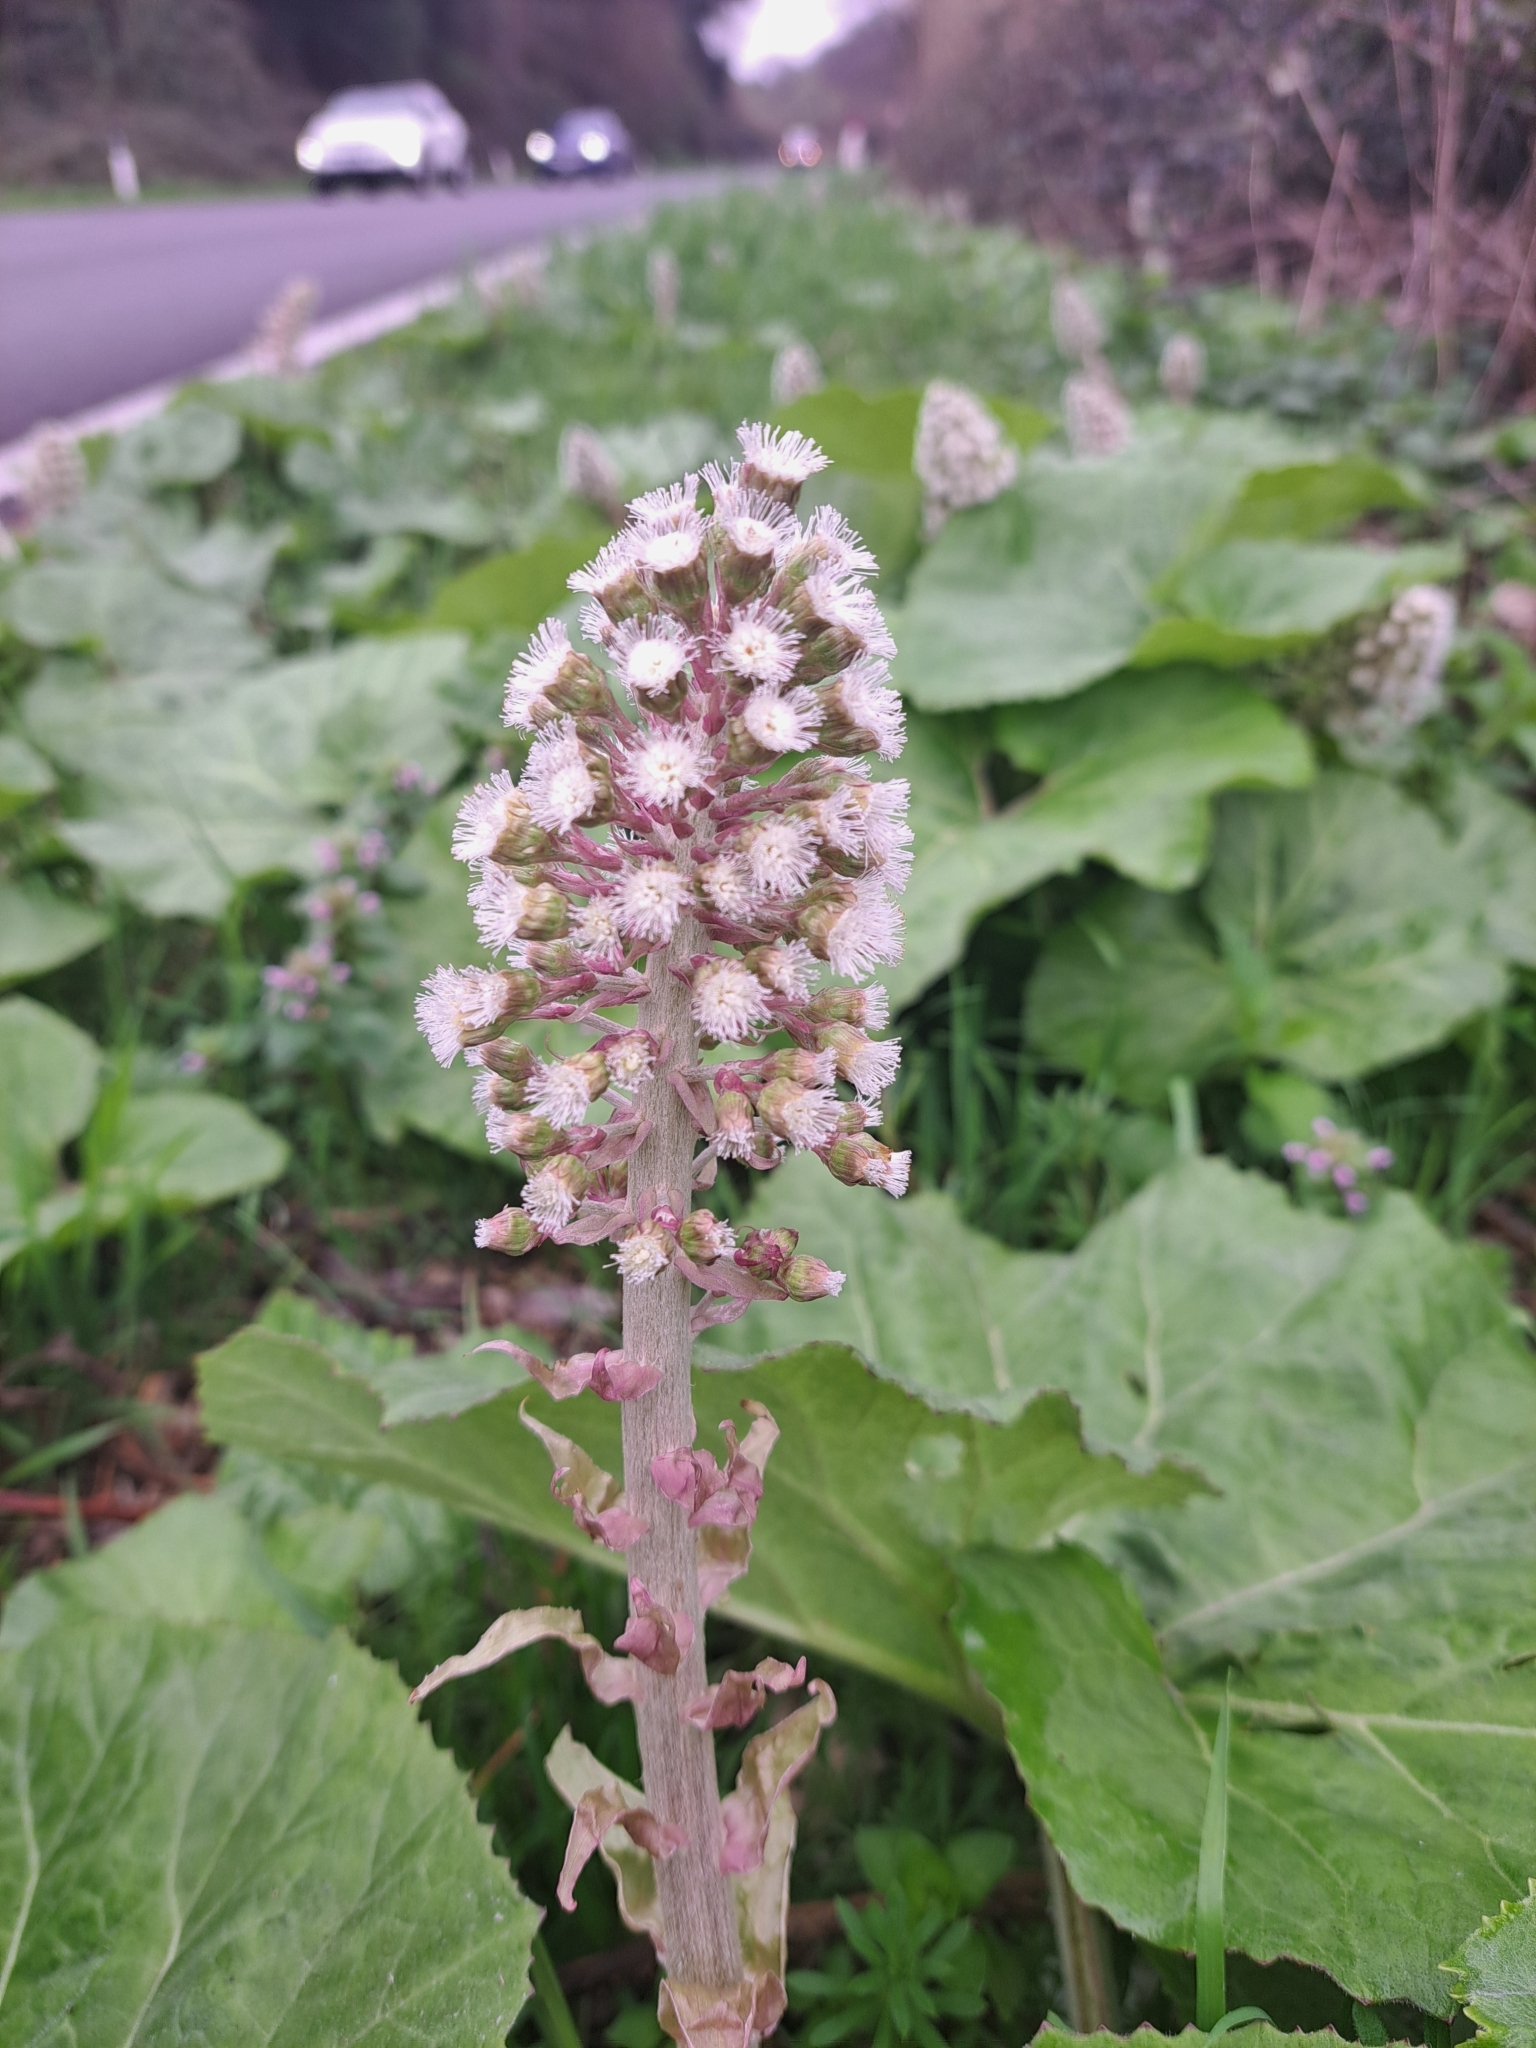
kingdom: Plantae
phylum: Tracheophyta
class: Magnoliopsida
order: Asterales
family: Asteraceae
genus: Petasites
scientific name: Petasites hybridus
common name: Butterbur
